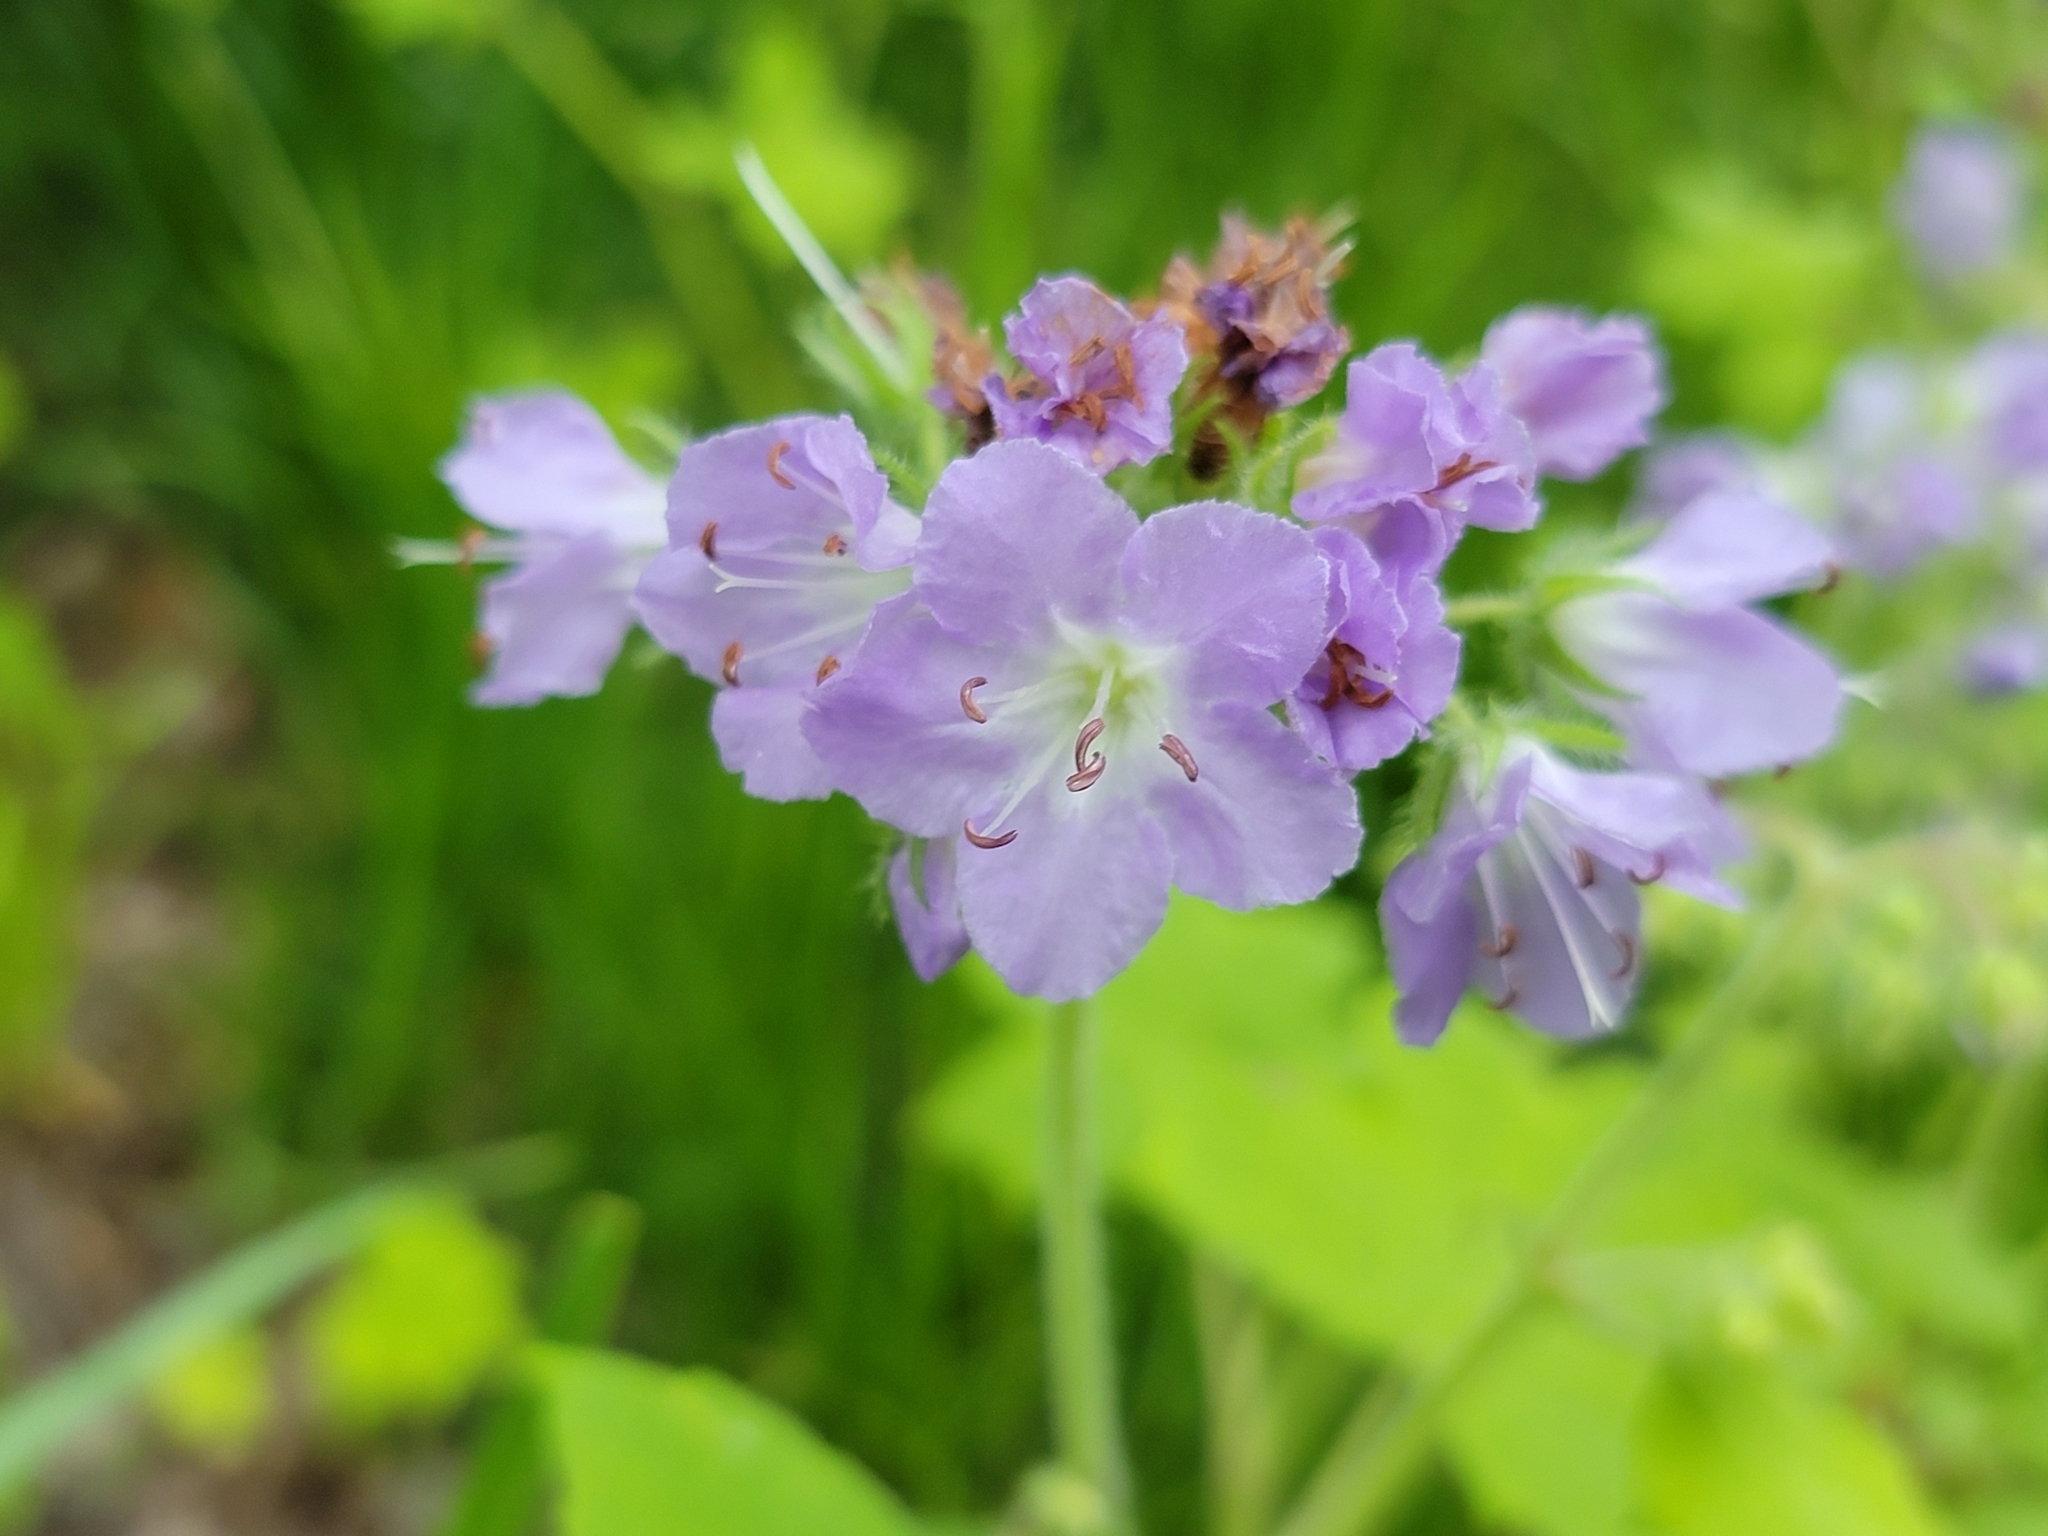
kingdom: Plantae
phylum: Tracheophyta
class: Magnoliopsida
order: Boraginales
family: Hydrophyllaceae
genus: Hydrophyllum
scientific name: Hydrophyllum appendiculatum
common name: Appendaged waterleaf
